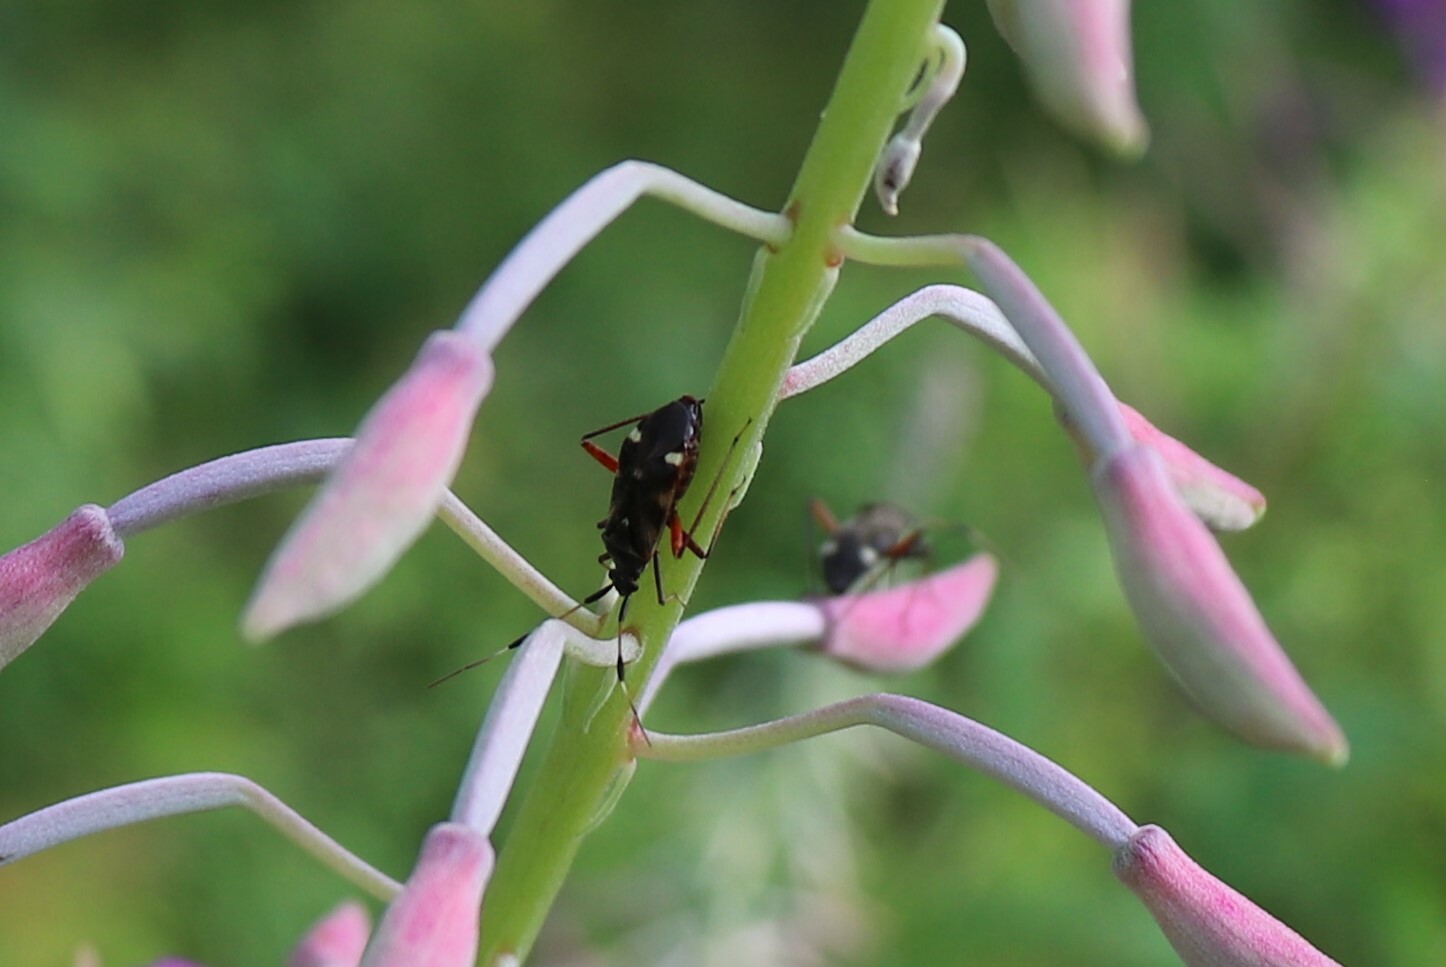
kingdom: Animalia
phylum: Arthropoda
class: Insecta
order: Hemiptera
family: Miridae
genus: Closterotomus
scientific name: Closterotomus biclavatus
